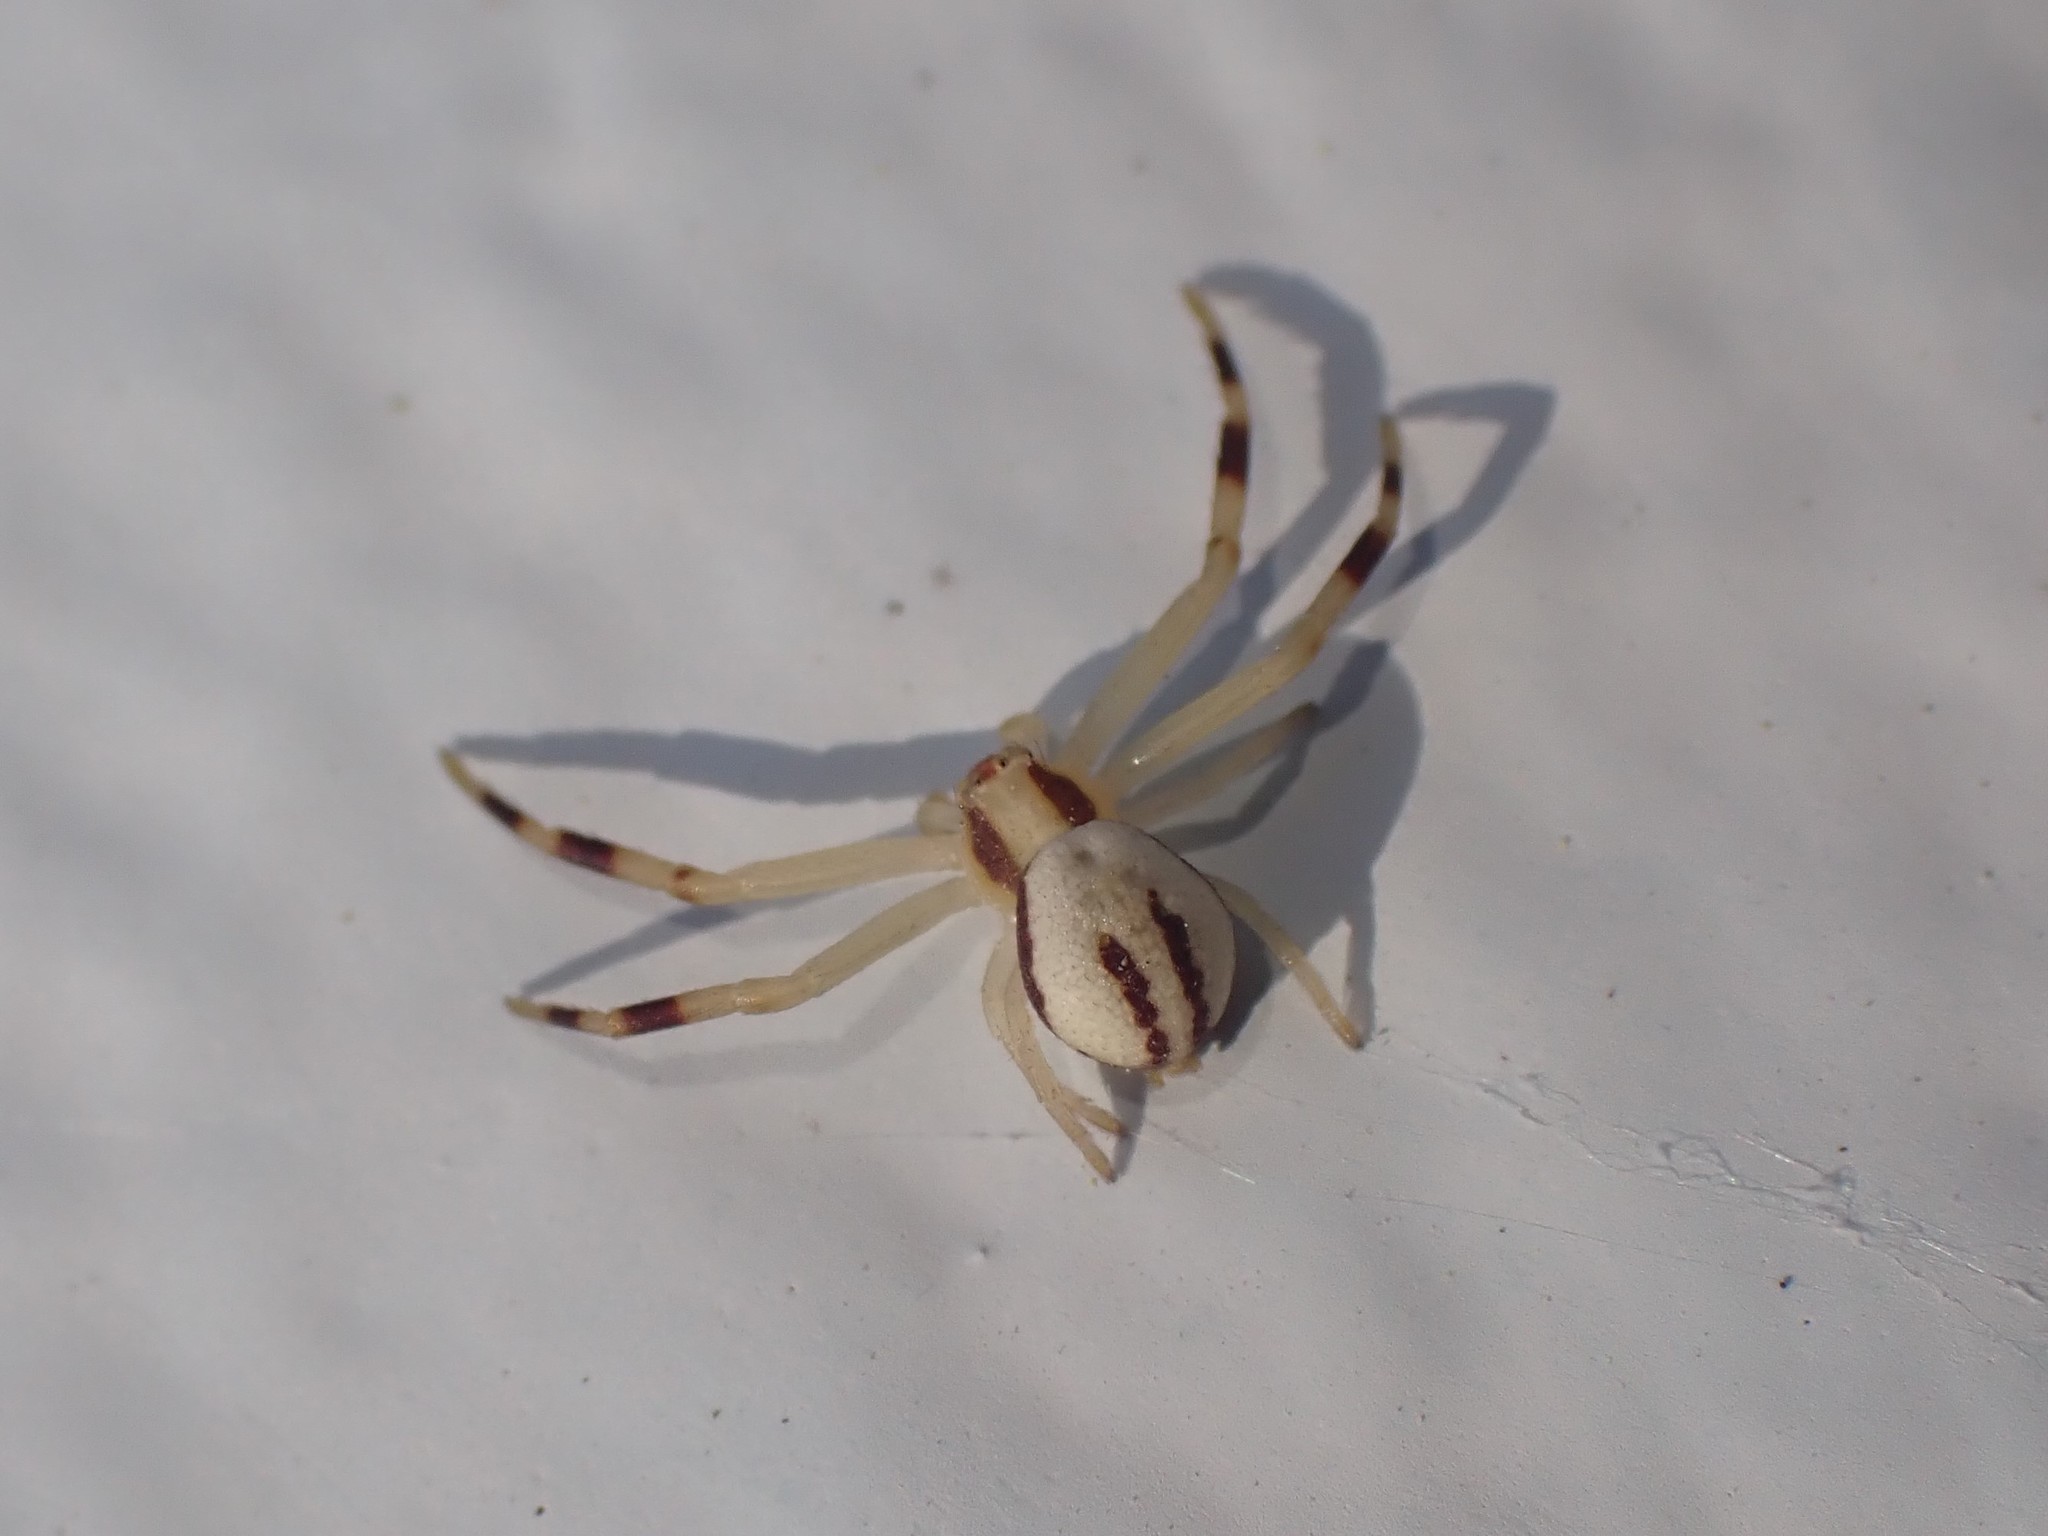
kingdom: Animalia
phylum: Arthropoda
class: Arachnida
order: Araneae
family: Thomisidae
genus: Misumena
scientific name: Misumena vatia
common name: Goldenrod crab spider
